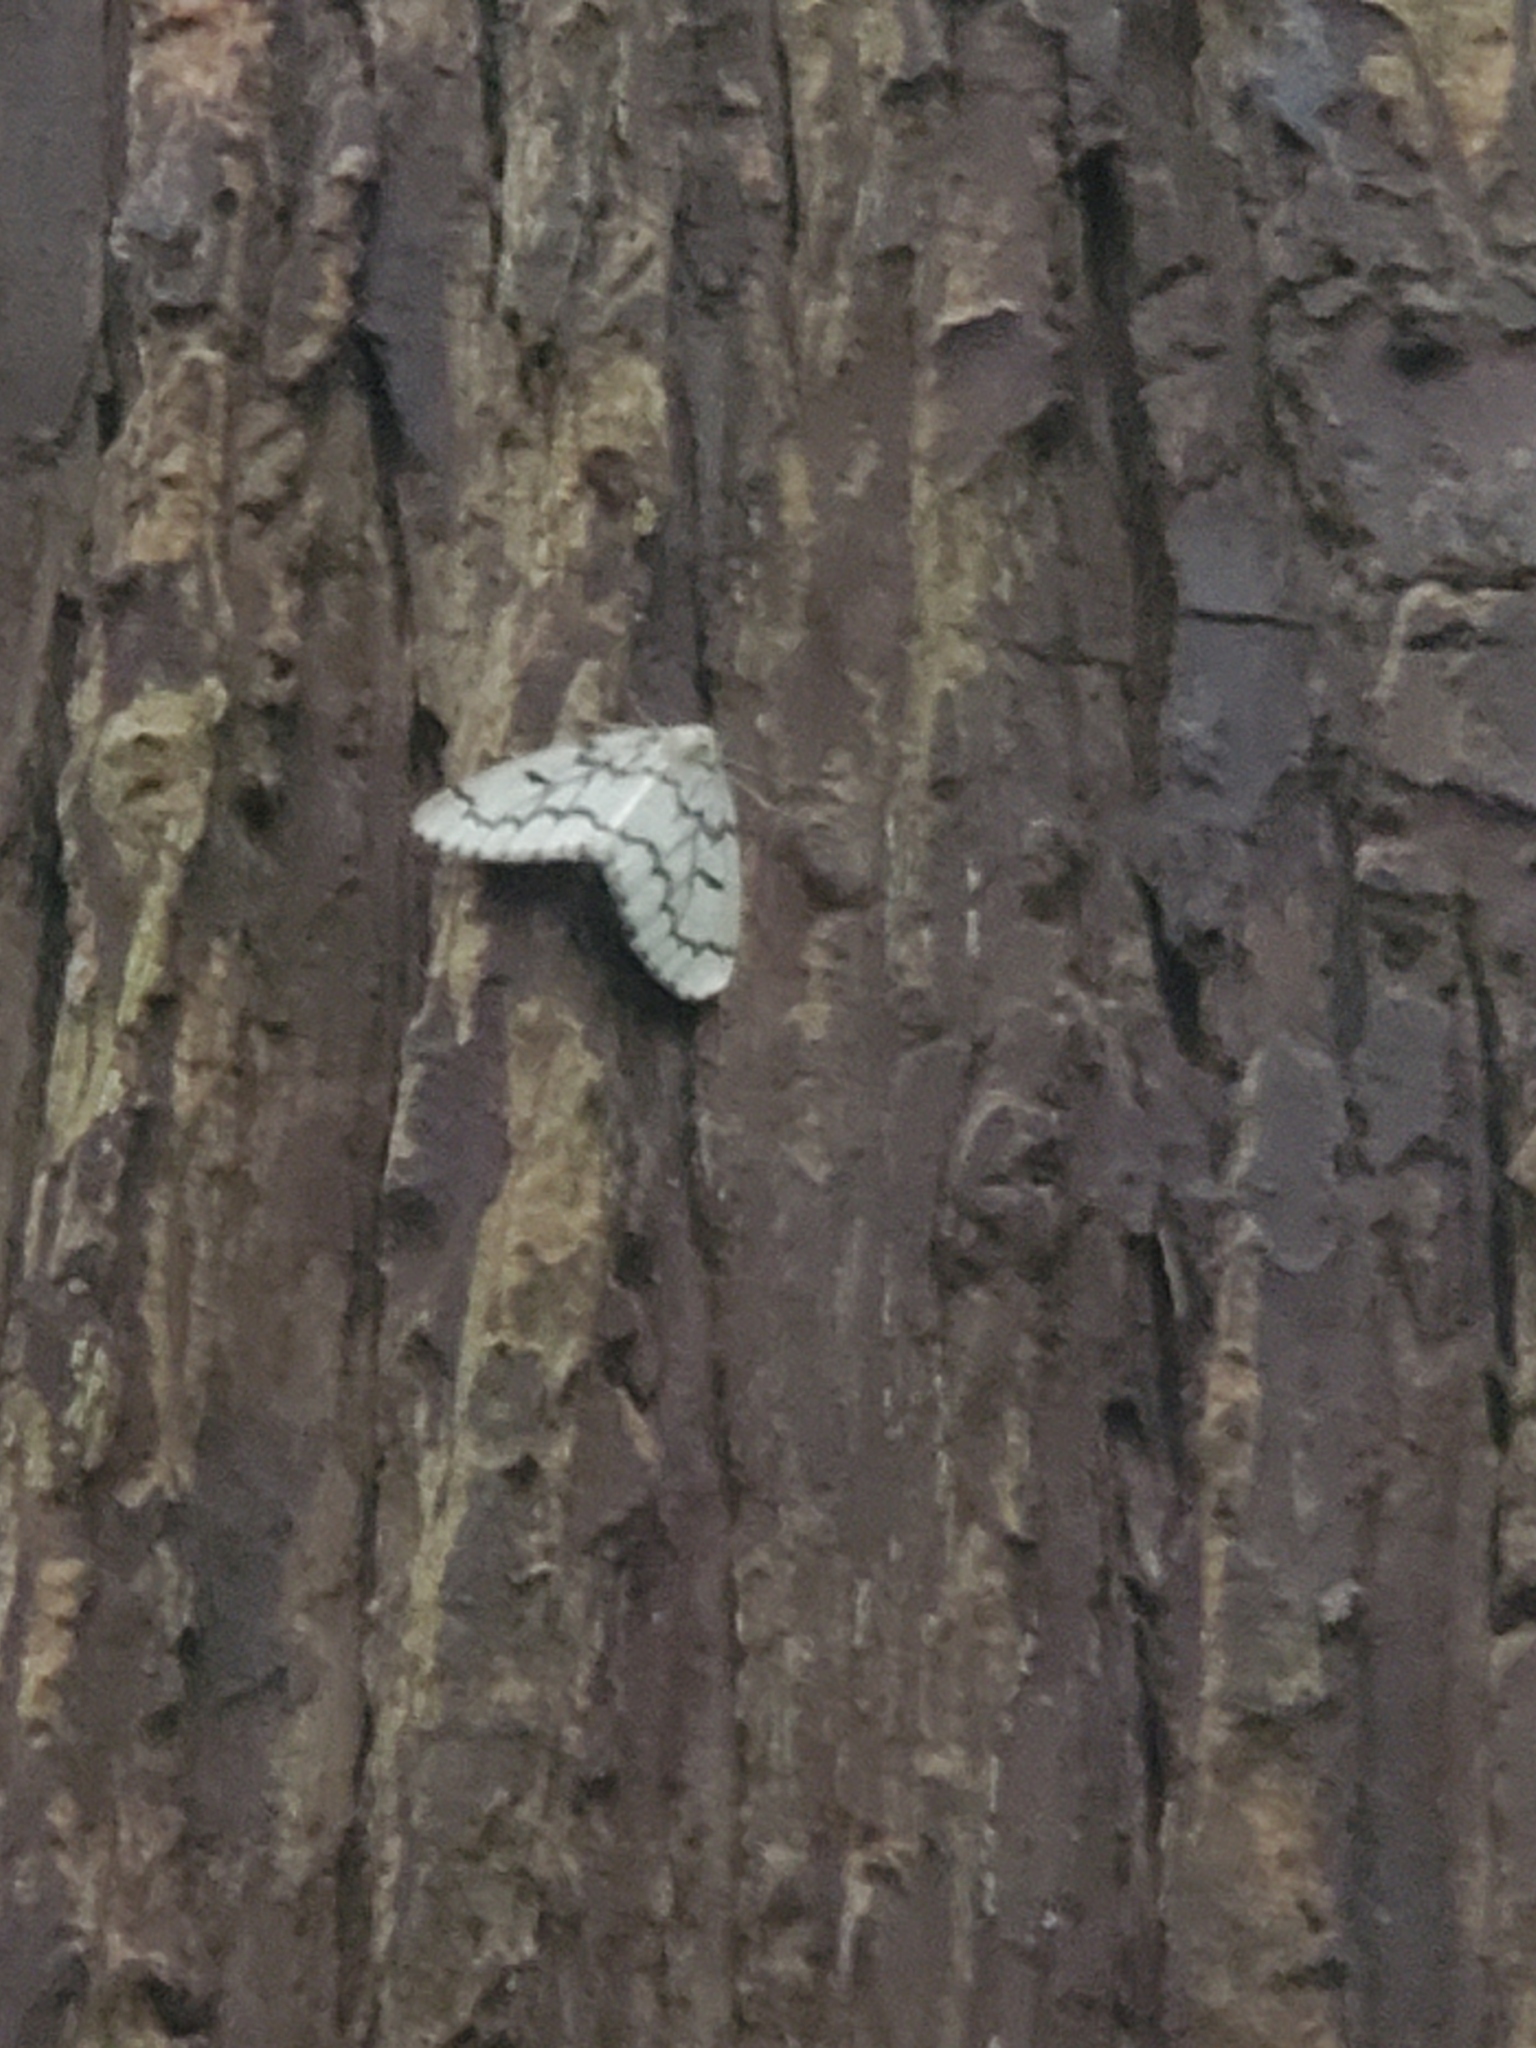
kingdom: Animalia
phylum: Arthropoda
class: Insecta
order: Lepidoptera
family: Geometridae
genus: Nepytia
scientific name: Nepytia phantasmaria
